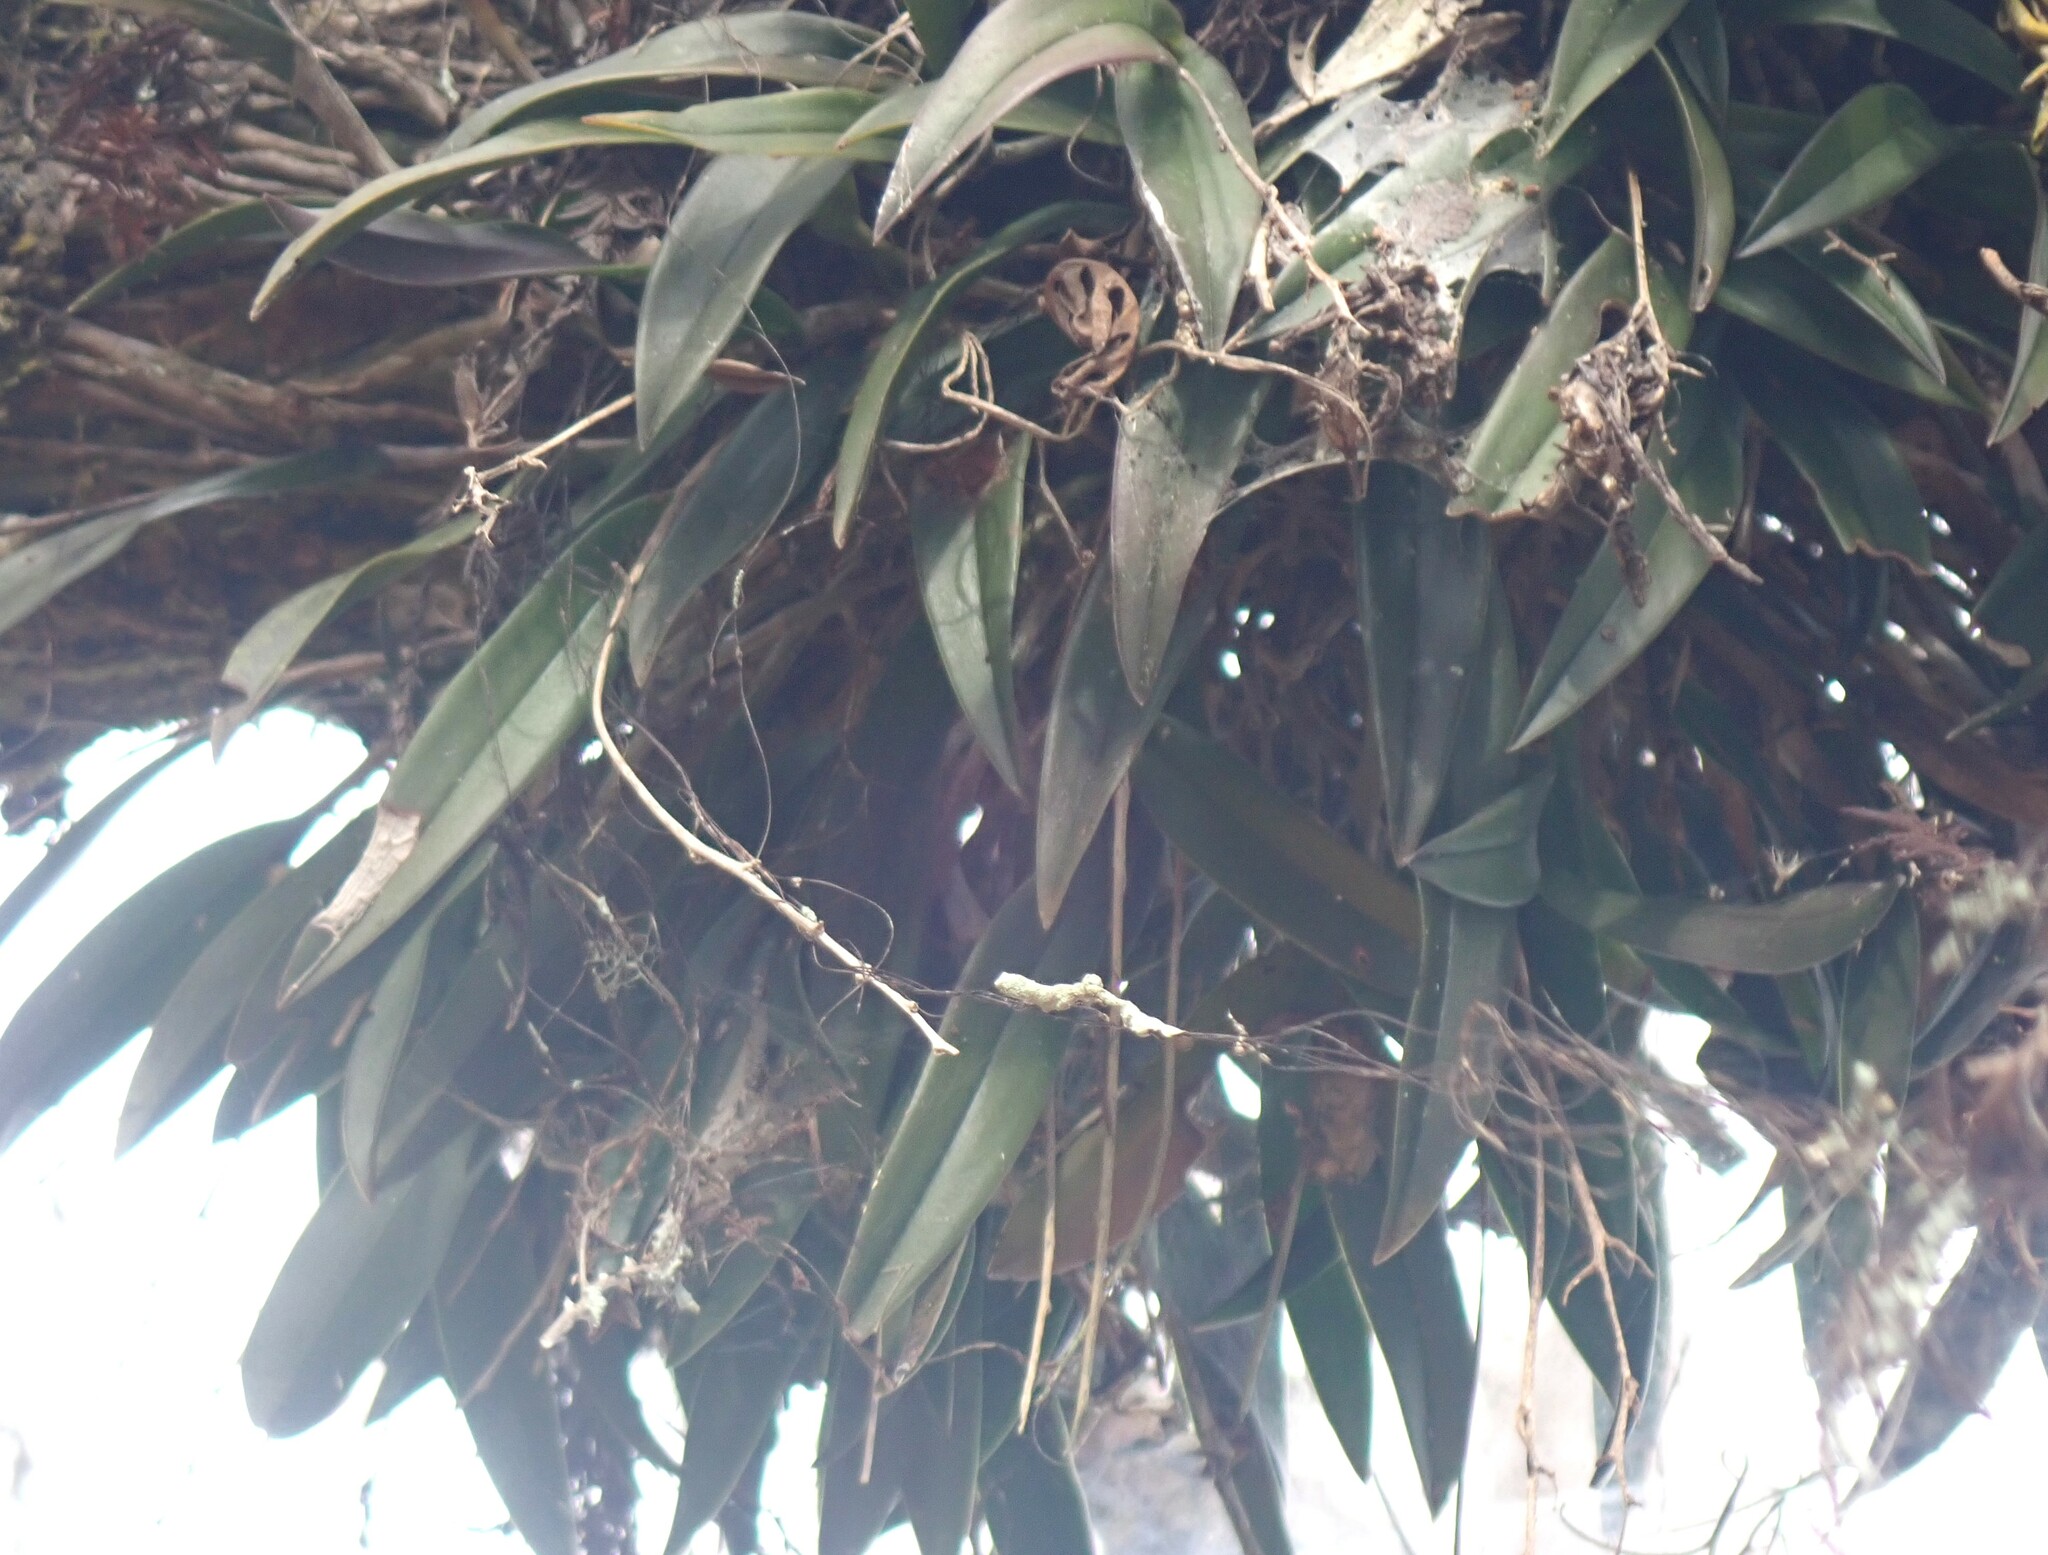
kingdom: Plantae
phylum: Tracheophyta
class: Liliopsida
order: Asparagales
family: Orchidaceae
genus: Epidendrum
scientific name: Epidendrum conopseum
